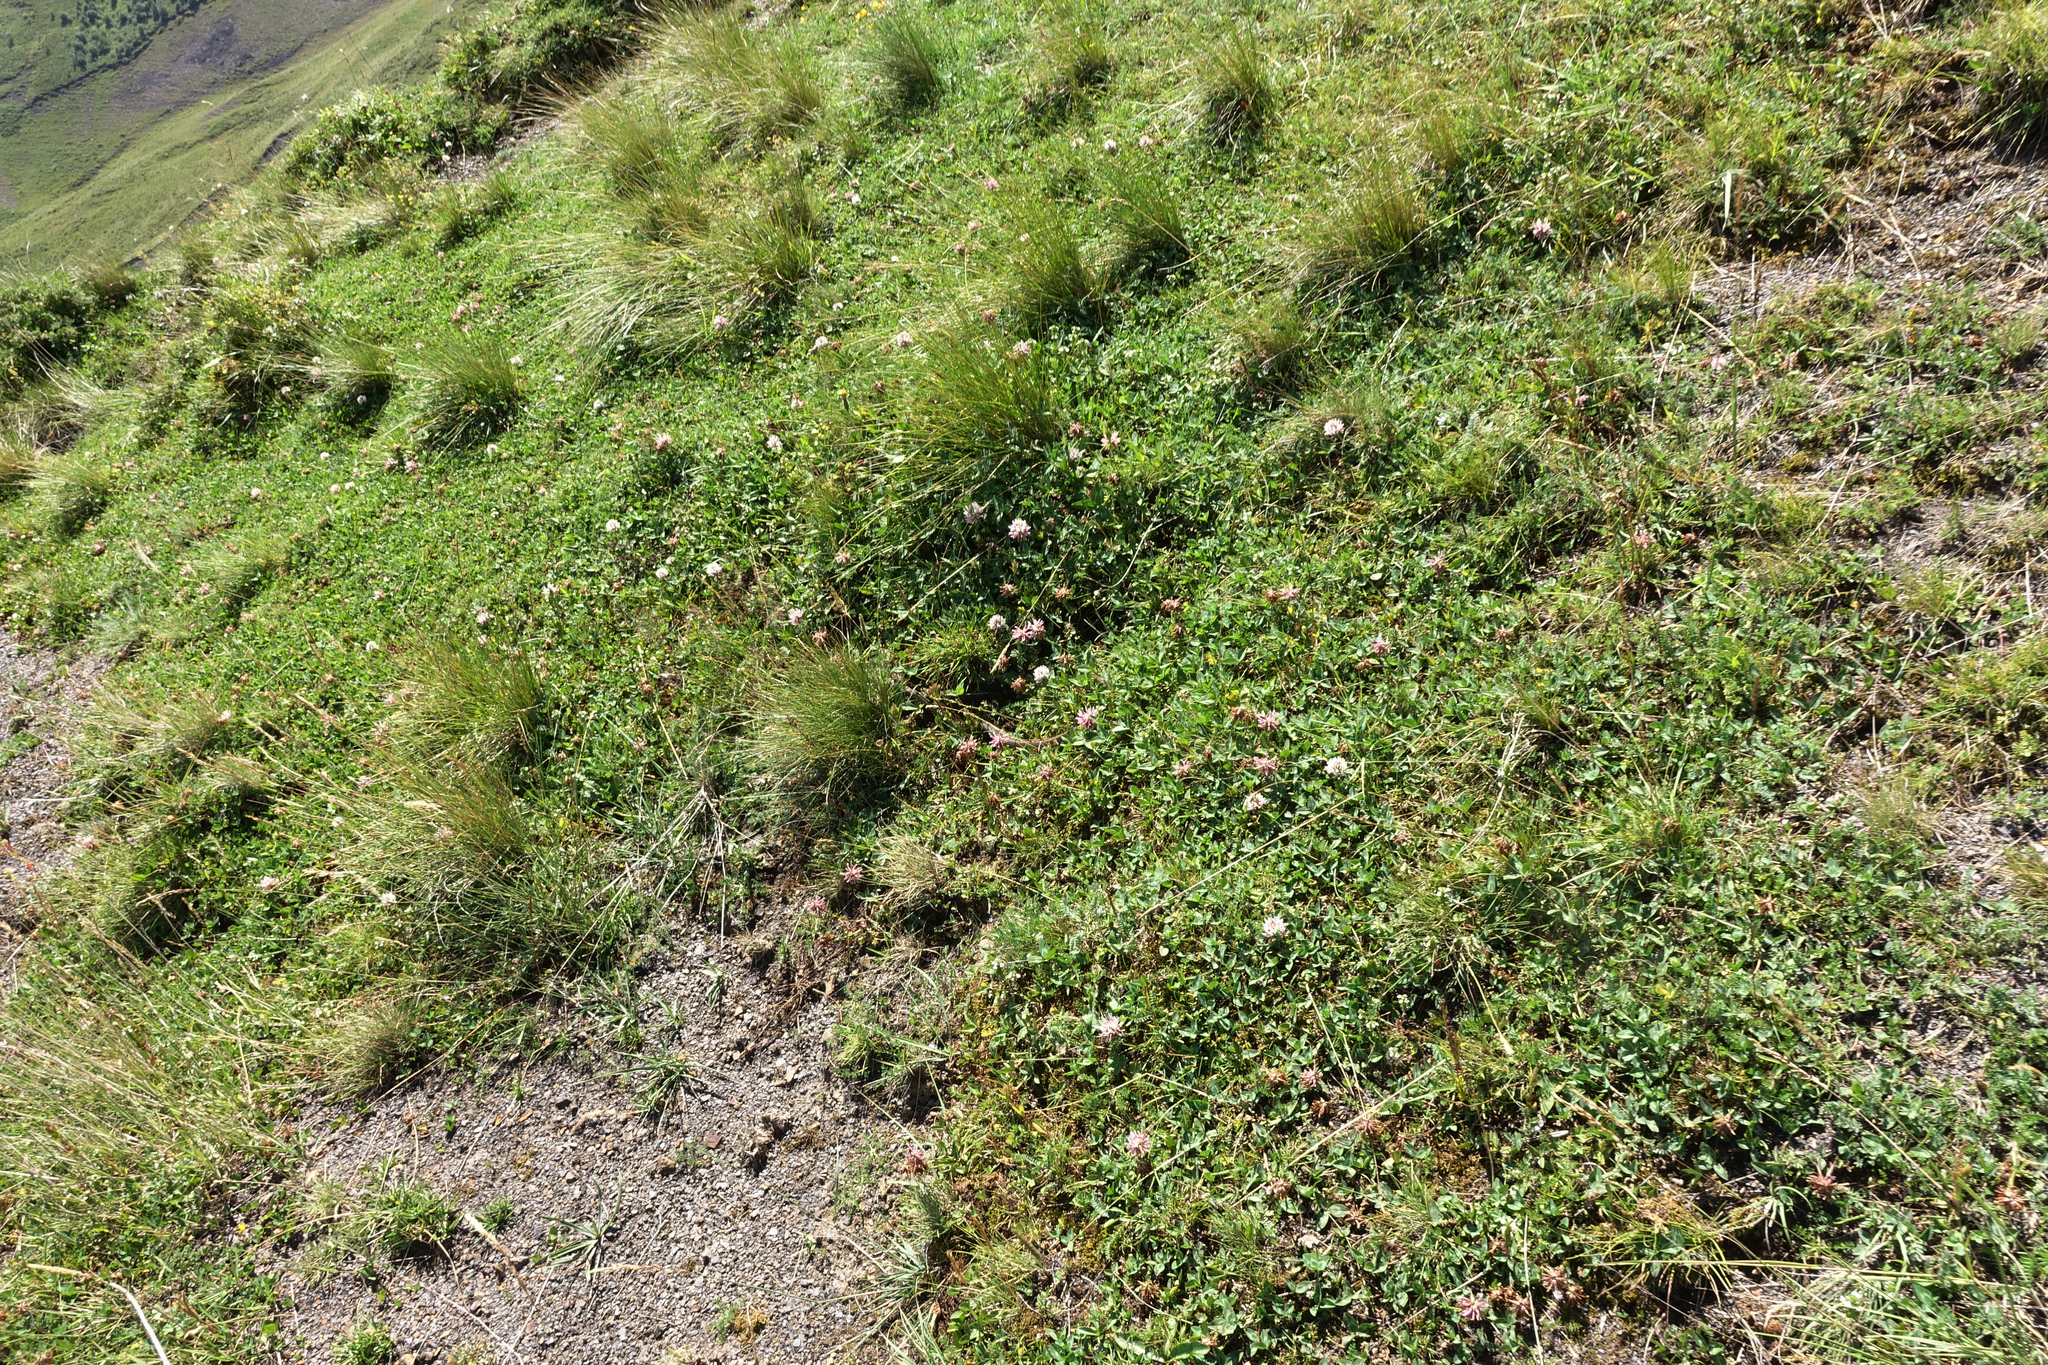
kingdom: Plantae
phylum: Tracheophyta
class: Magnoliopsida
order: Fabales
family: Fabaceae
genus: Trifolium
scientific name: Trifolium ambiguum
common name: Kura clover
